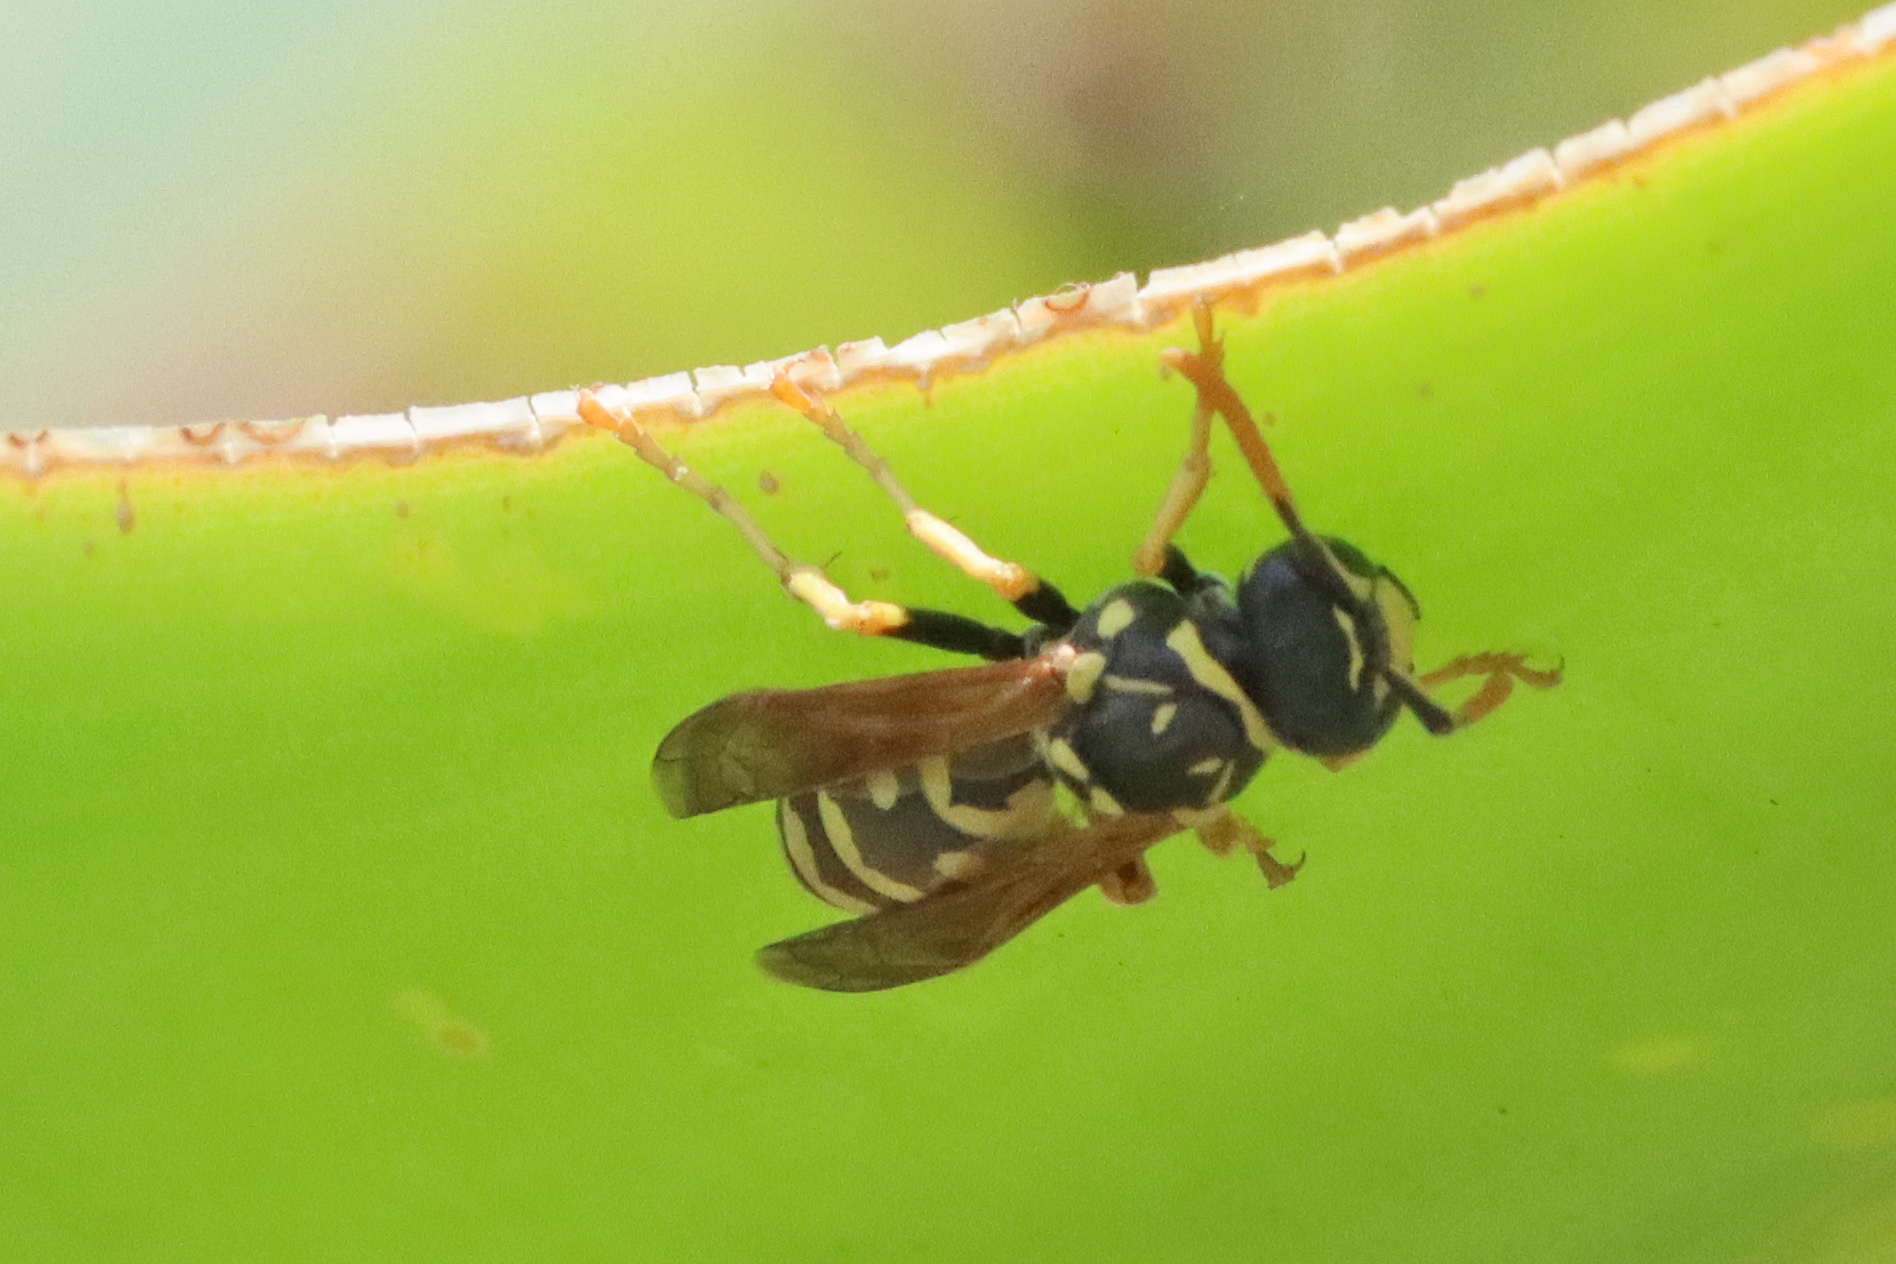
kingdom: Animalia
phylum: Arthropoda
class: Insecta
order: Hymenoptera
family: Eumenidae
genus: Polistes
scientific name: Polistes dominula
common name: Paper wasp
